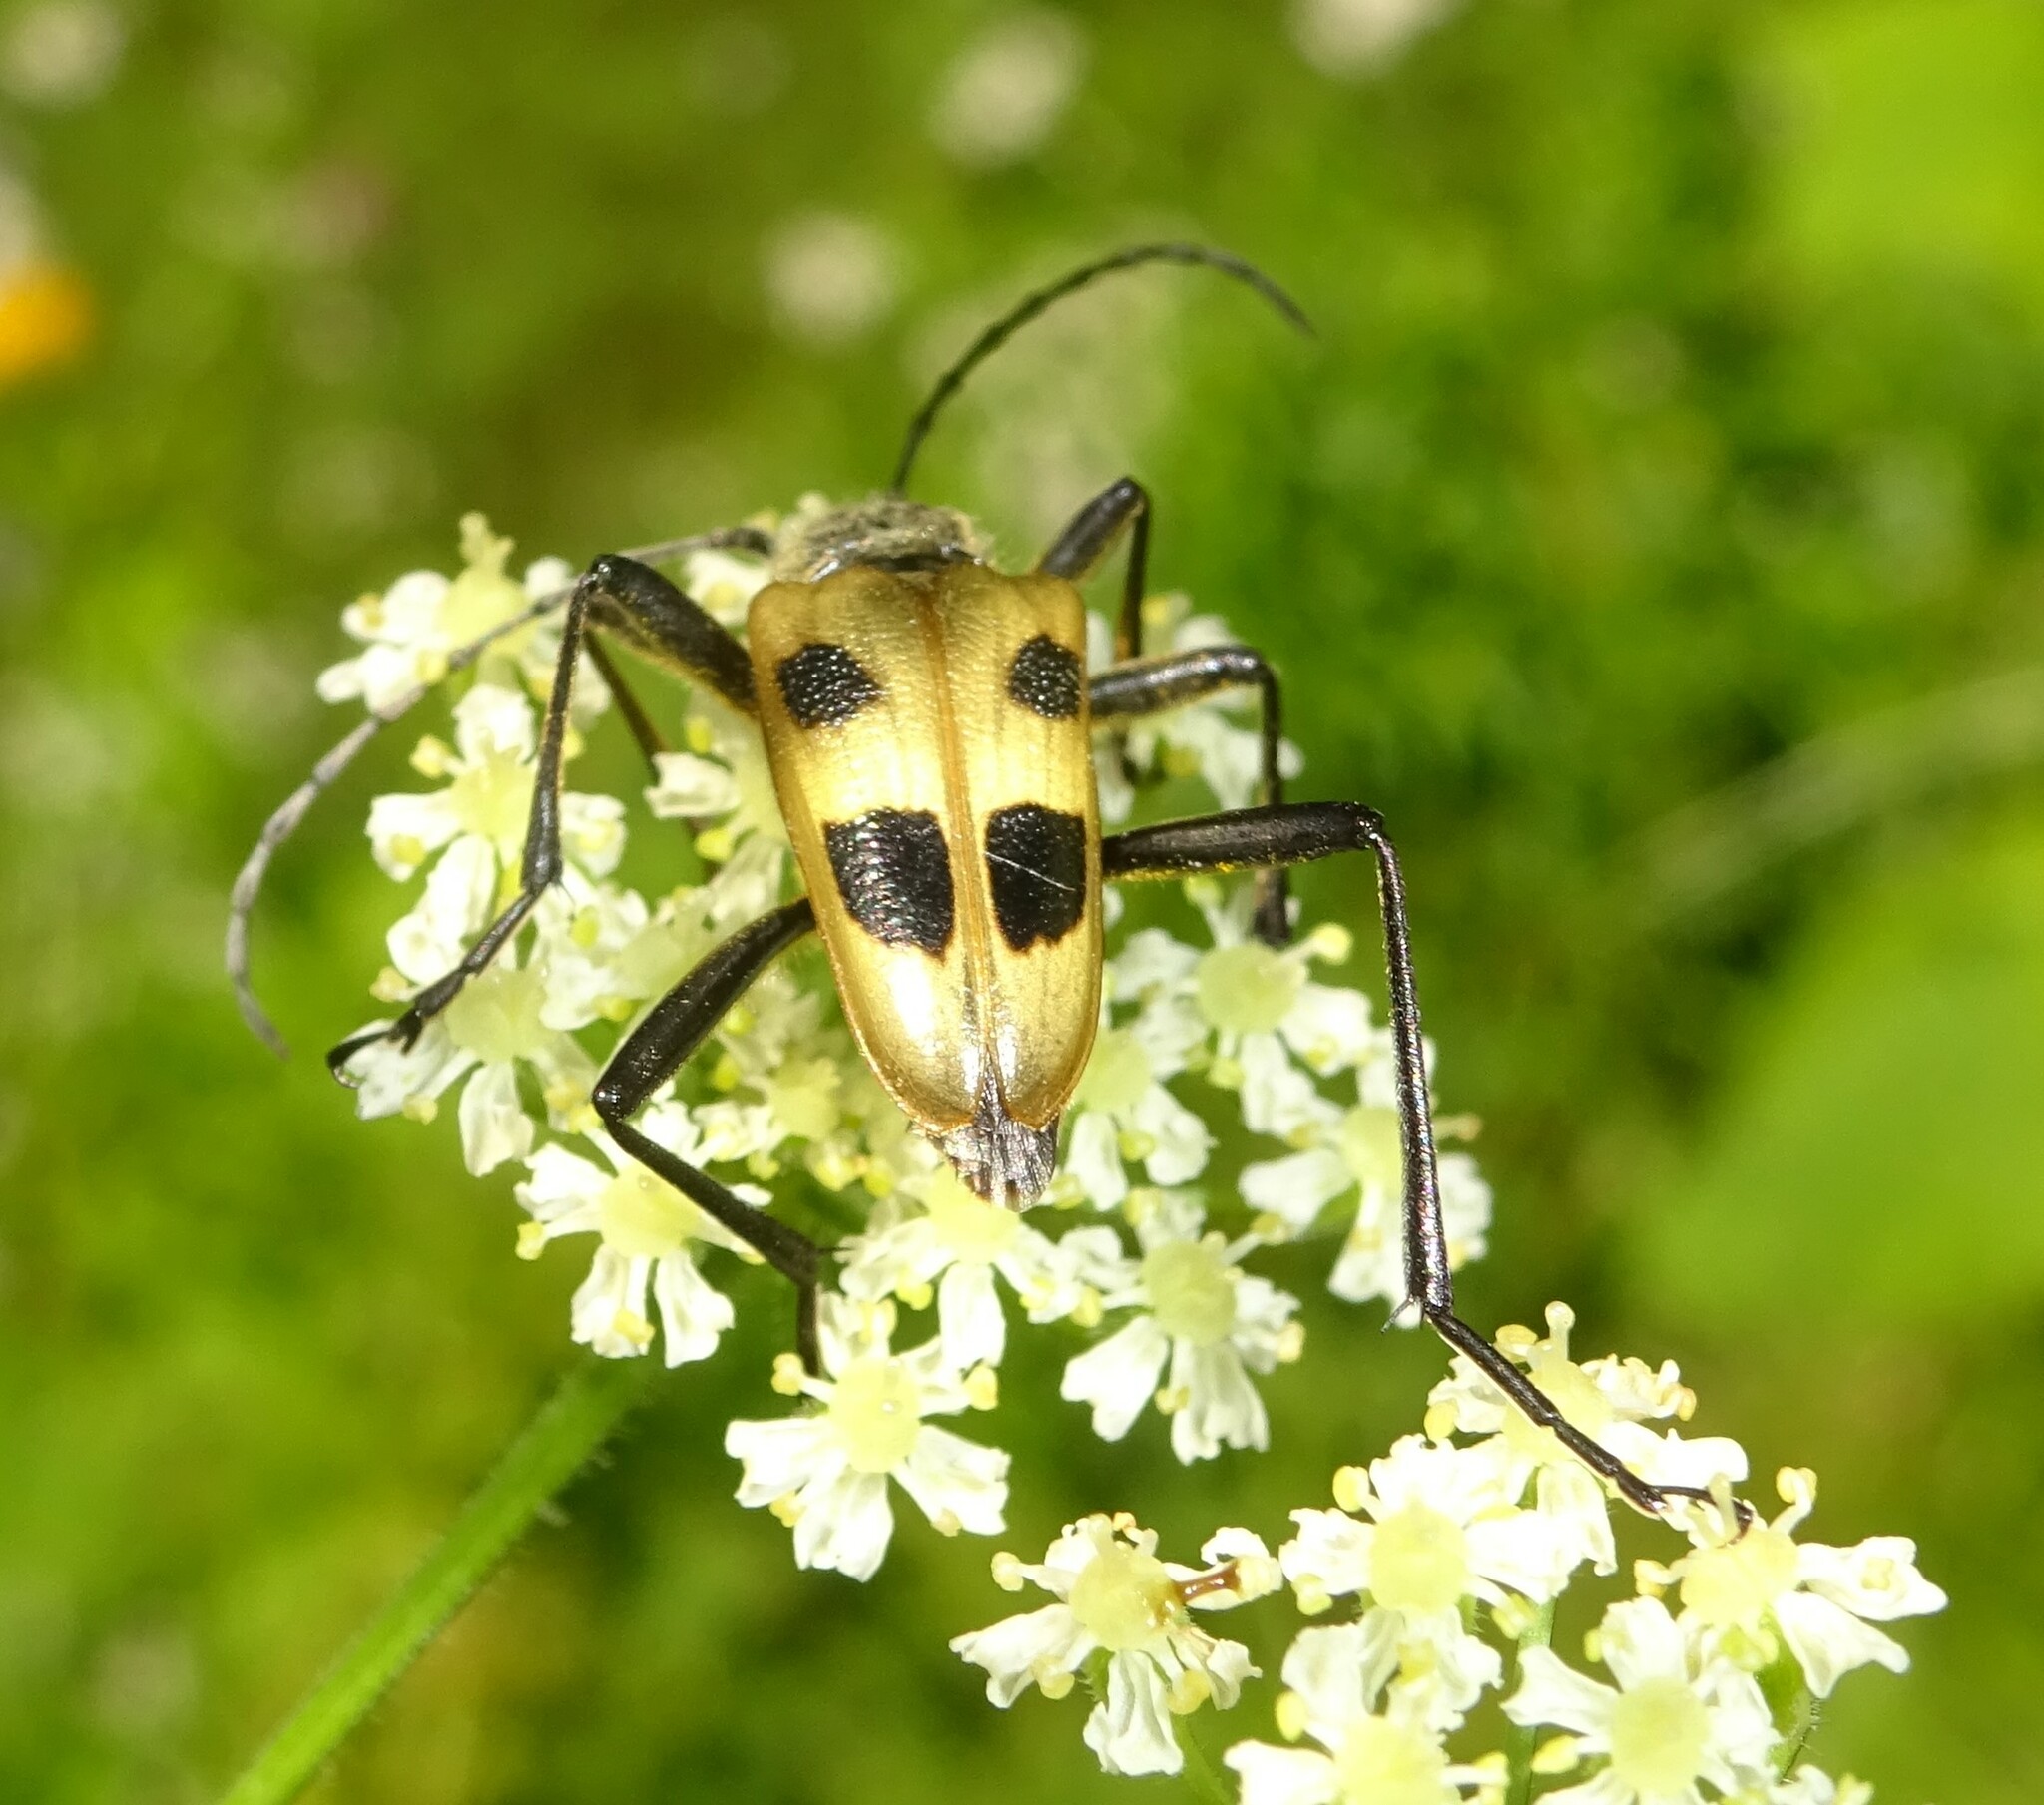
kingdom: Animalia
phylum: Arthropoda
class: Insecta
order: Coleoptera
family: Cerambycidae
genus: Pachyta
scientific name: Pachyta quadrimaculata
